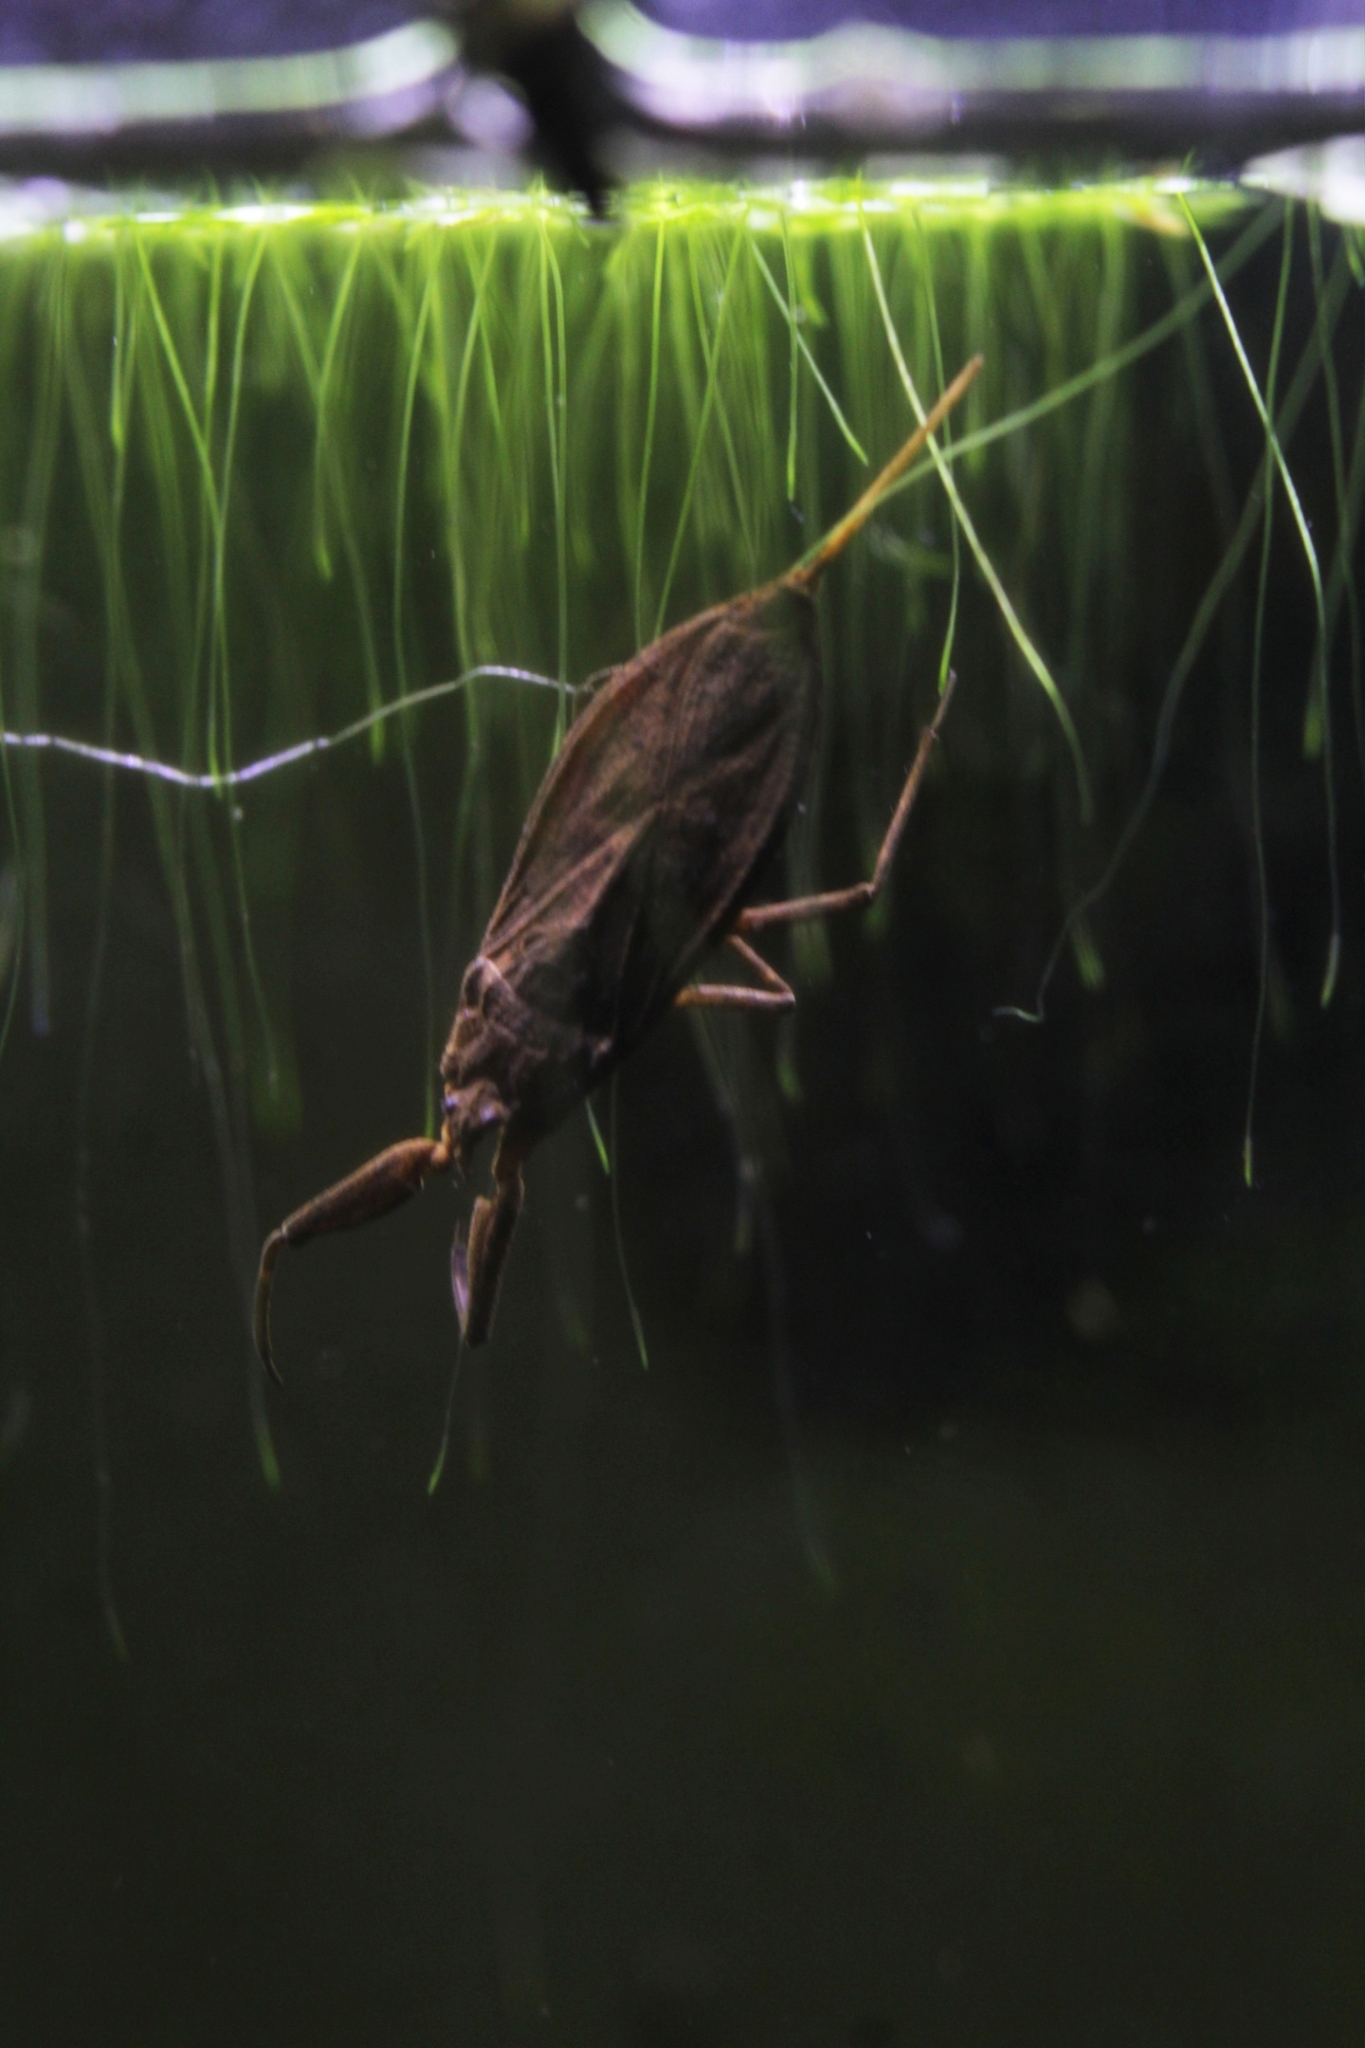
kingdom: Animalia
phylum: Arthropoda
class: Insecta
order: Hemiptera
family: Nepidae
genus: Nepa
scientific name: Nepa cinerea
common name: Water scorpion
